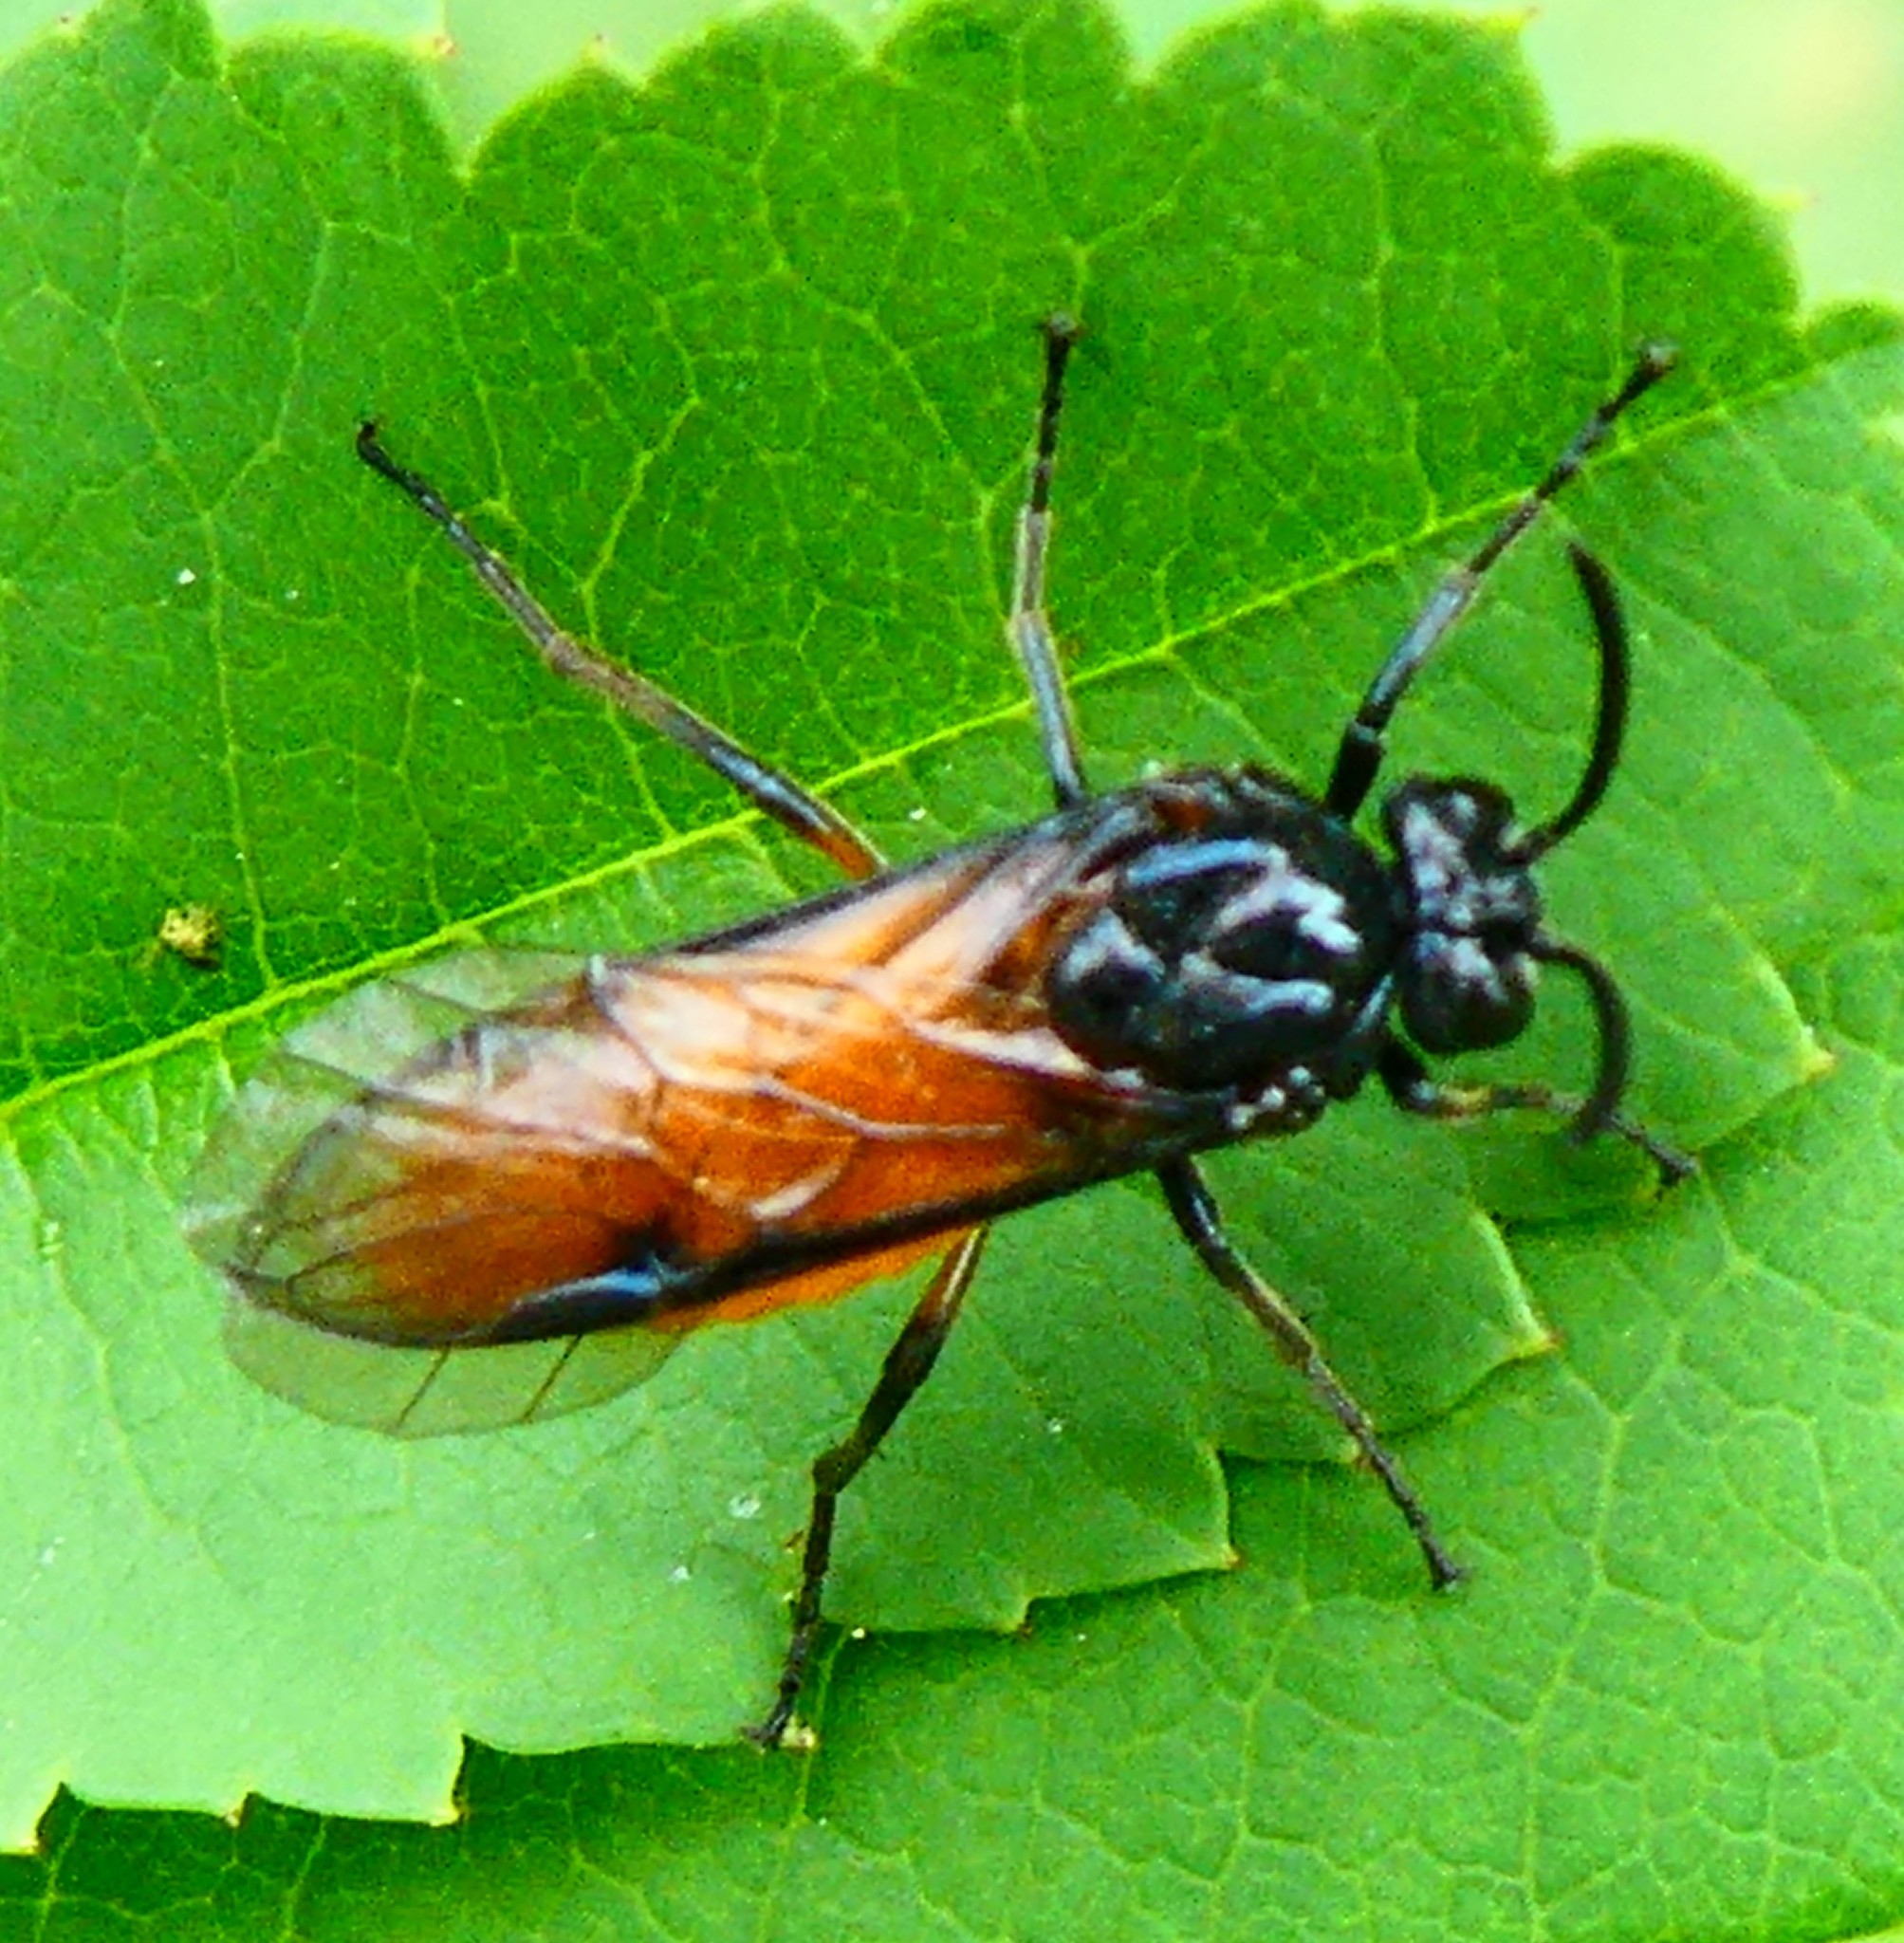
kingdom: Animalia
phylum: Arthropoda
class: Insecta
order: Hymenoptera
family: Argidae
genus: Arge
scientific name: Arge pagana
